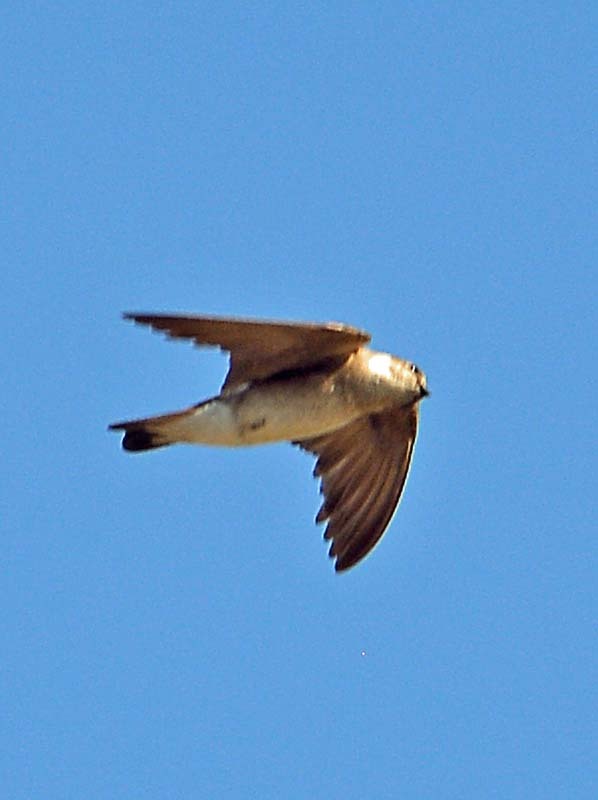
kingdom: Animalia
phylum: Chordata
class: Aves
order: Passeriformes
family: Hirundinidae
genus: Stelgidopteryx
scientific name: Stelgidopteryx serripennis
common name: Northern rough-winged swallow
